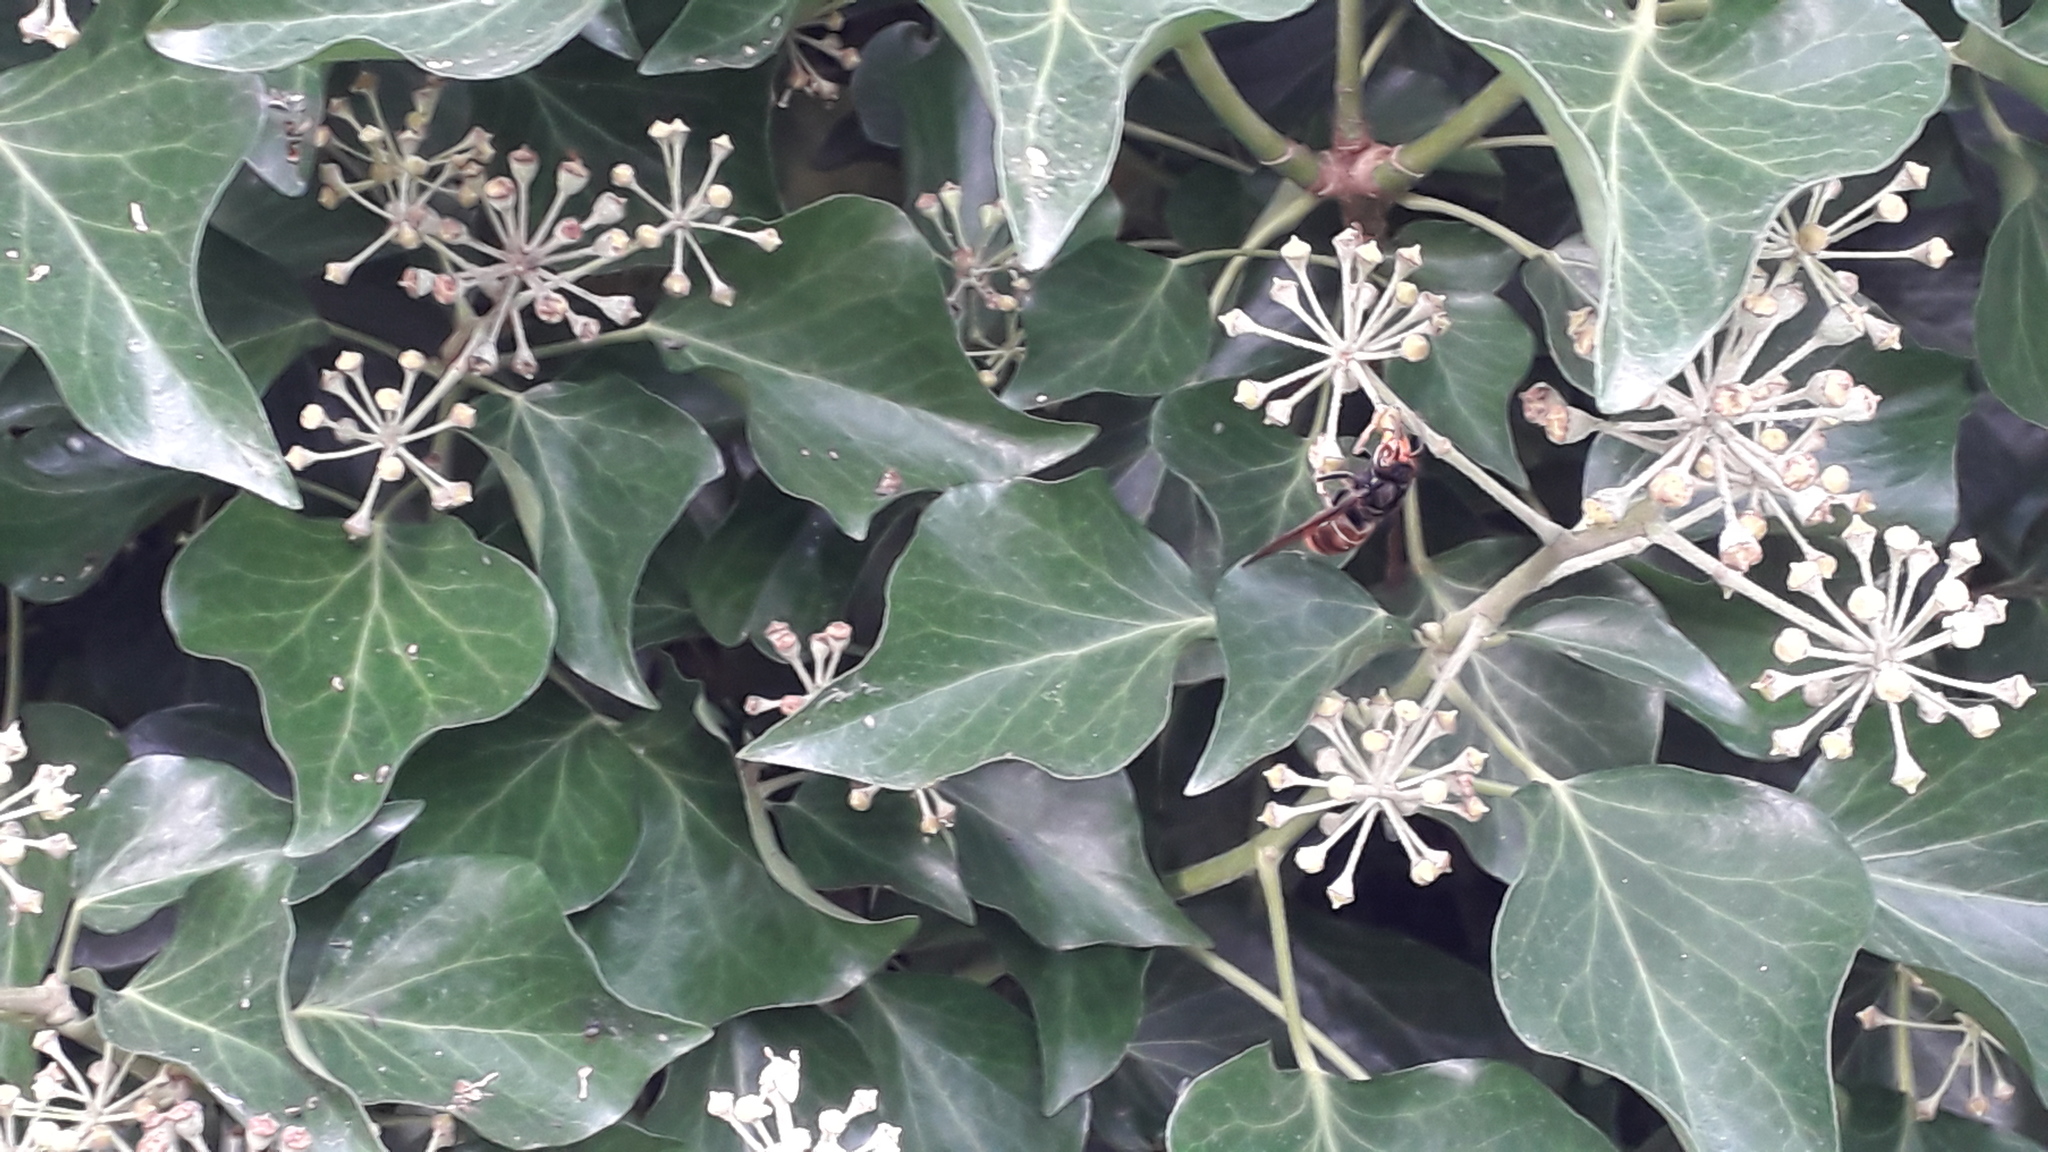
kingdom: Animalia
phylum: Arthropoda
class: Insecta
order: Hymenoptera
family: Vespidae
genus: Vespa
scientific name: Vespa velutina
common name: Asian hornet
